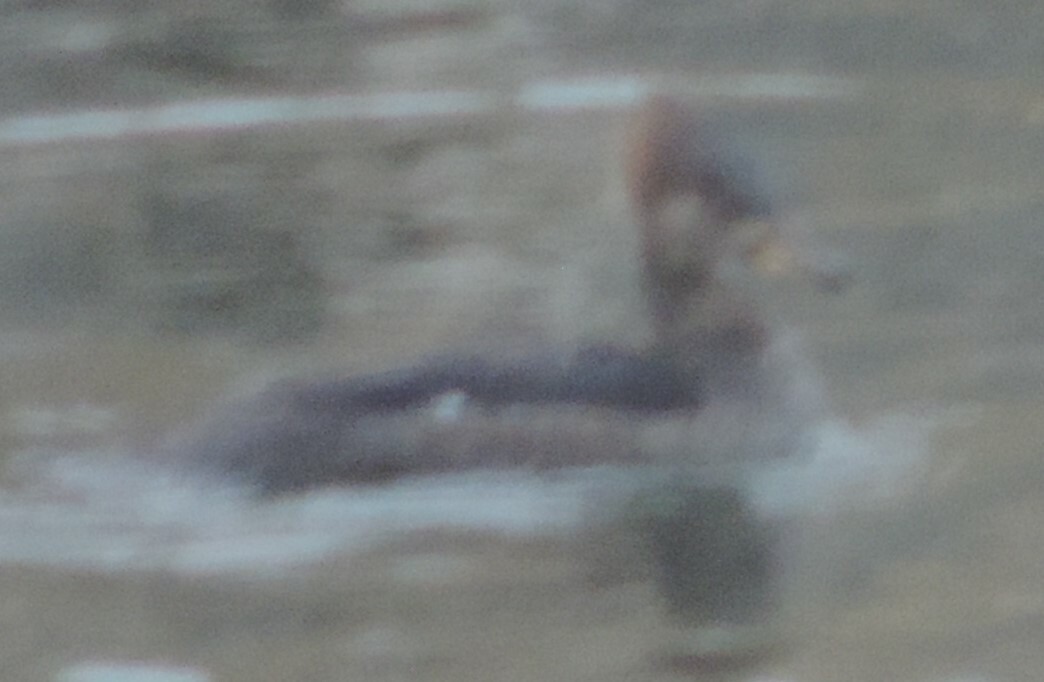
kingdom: Animalia
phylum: Chordata
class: Aves
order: Anseriformes
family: Anatidae
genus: Lophodytes
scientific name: Lophodytes cucullatus
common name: Hooded merganser
